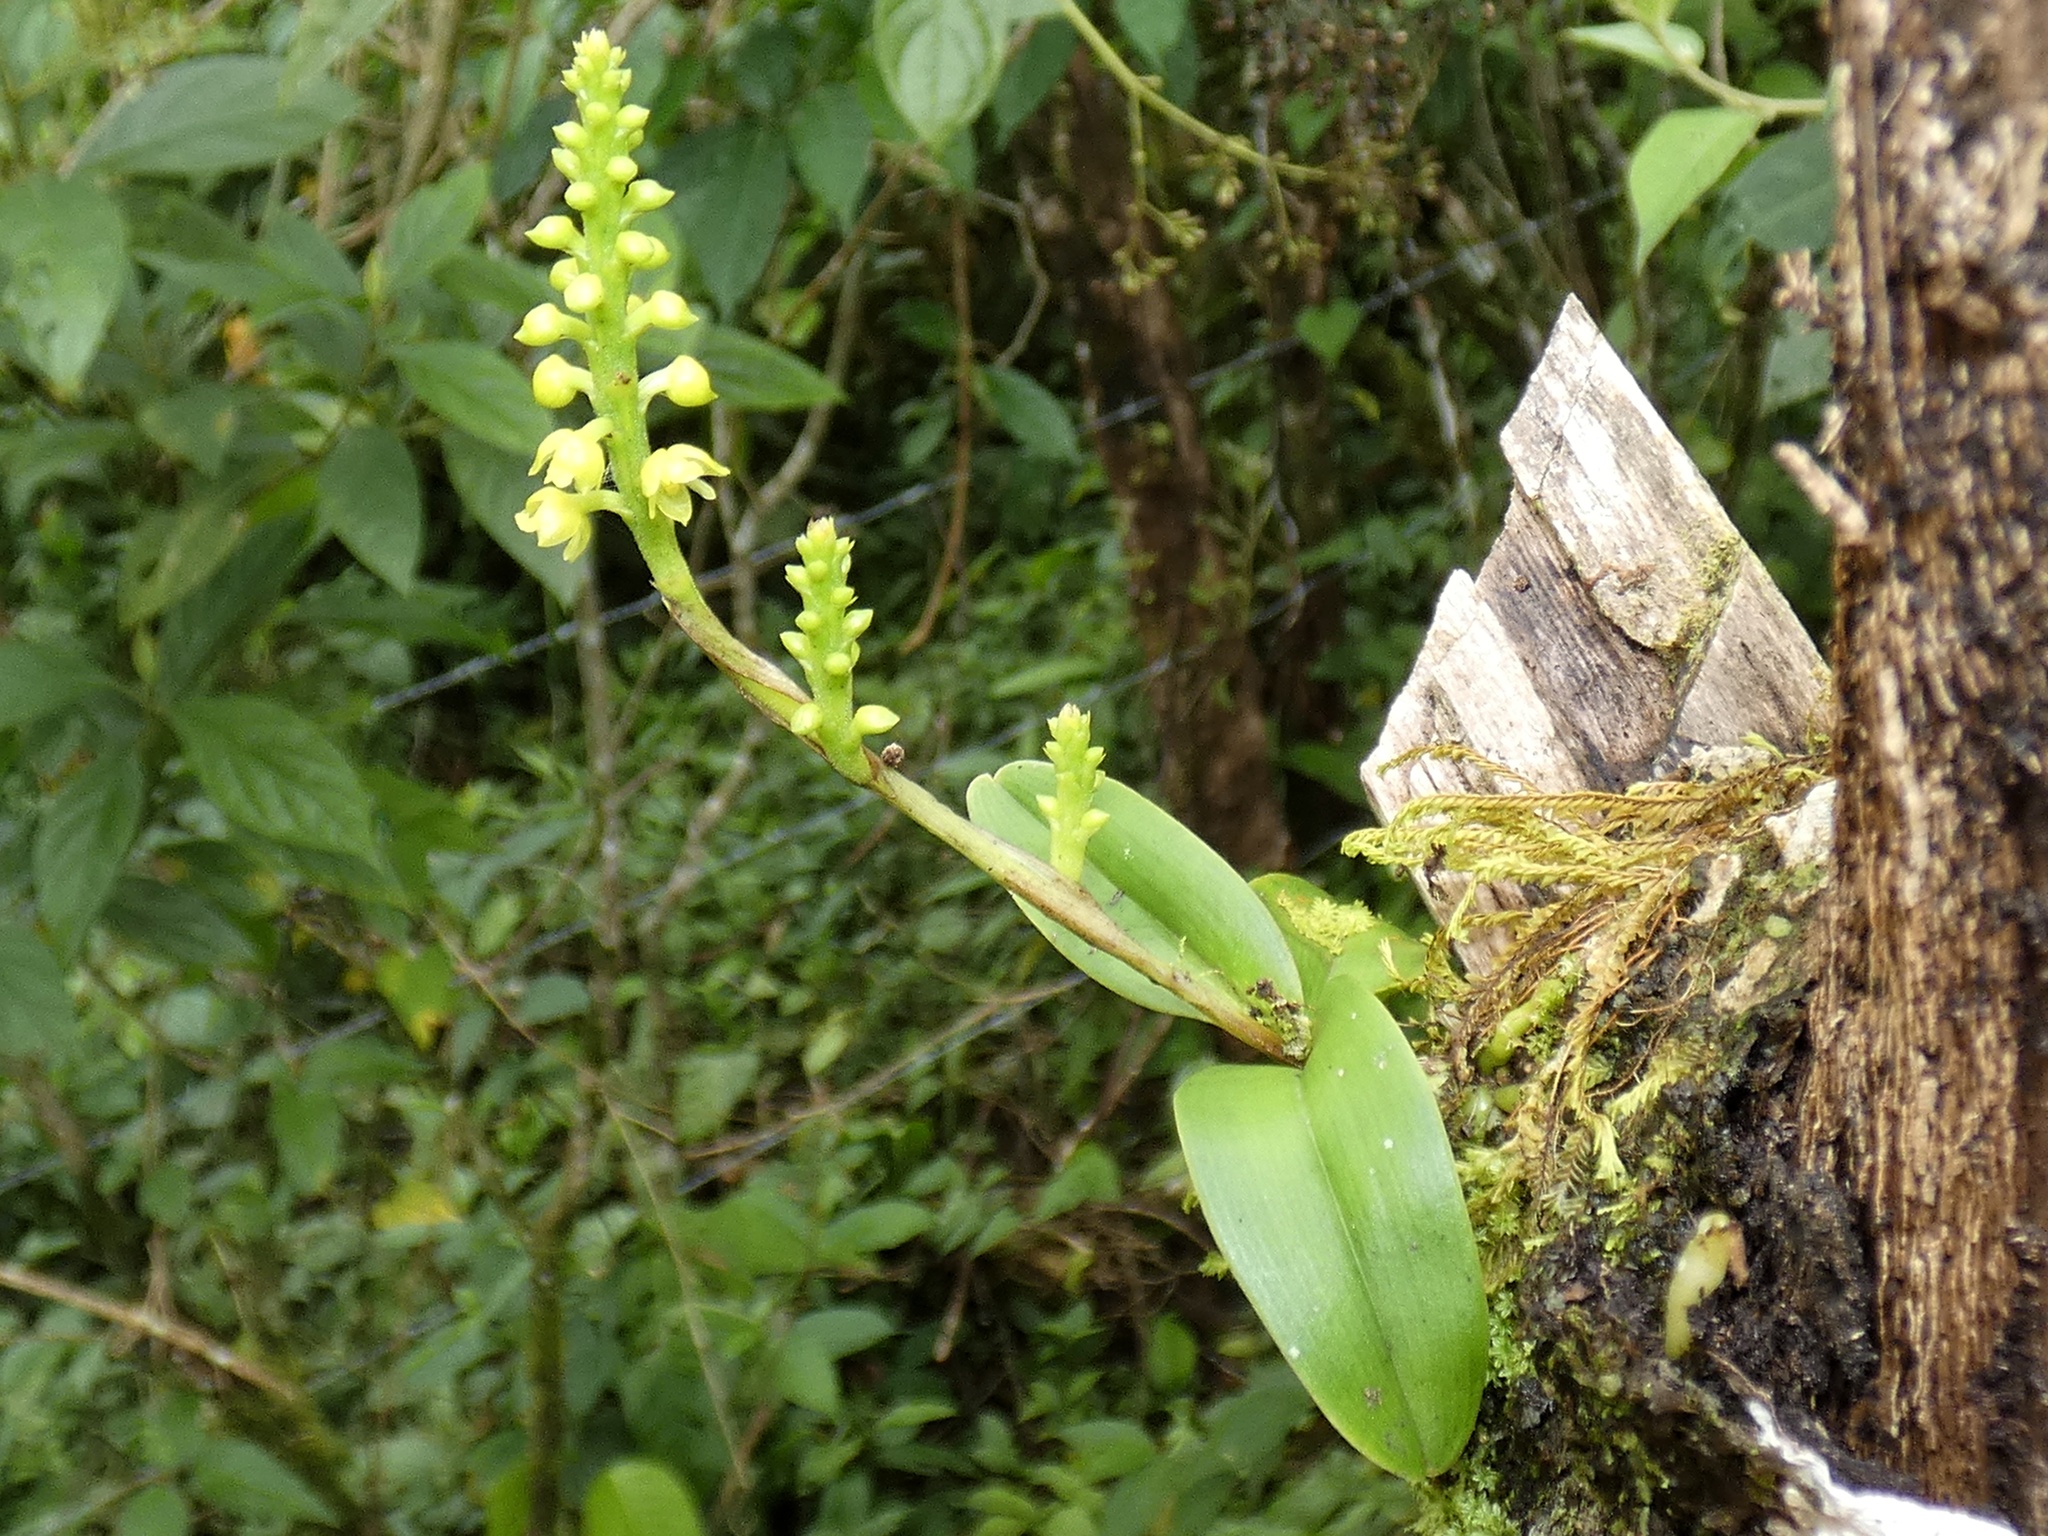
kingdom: Plantae
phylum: Tracheophyta
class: Liliopsida
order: Asparagales
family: Orchidaceae
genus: Polystachya
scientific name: Polystachya foliosa
